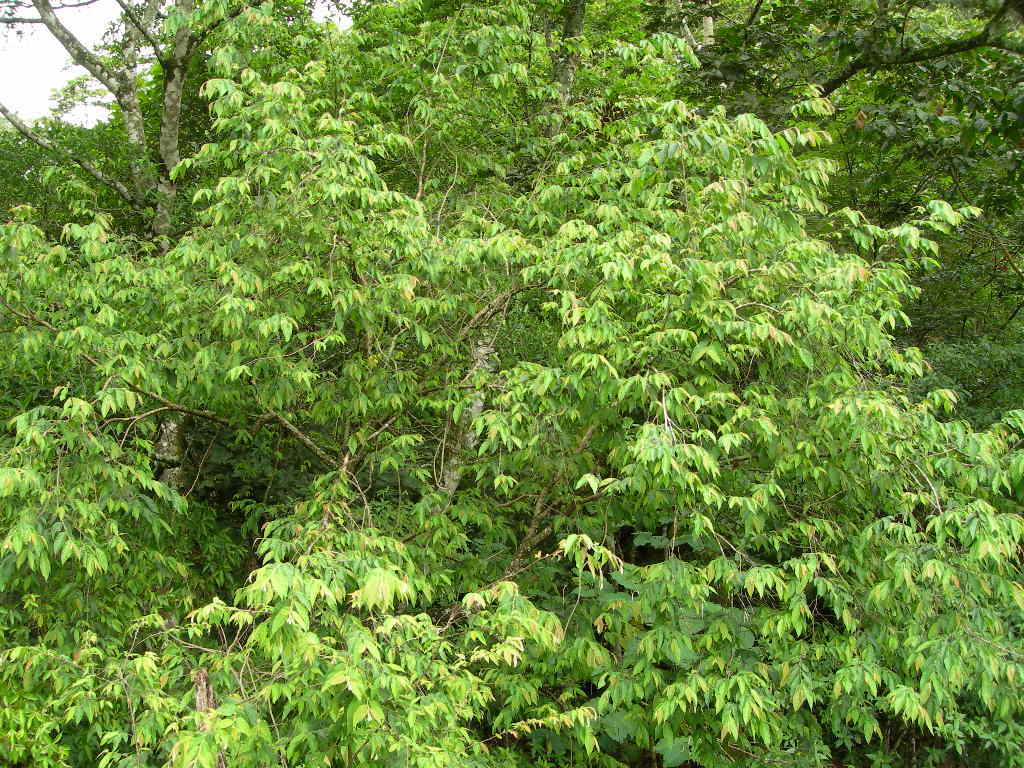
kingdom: Plantae
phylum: Tracheophyta
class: Magnoliopsida
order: Malvales
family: Malvaceae
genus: Trichospermum
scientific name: Trichospermum mexicanum
